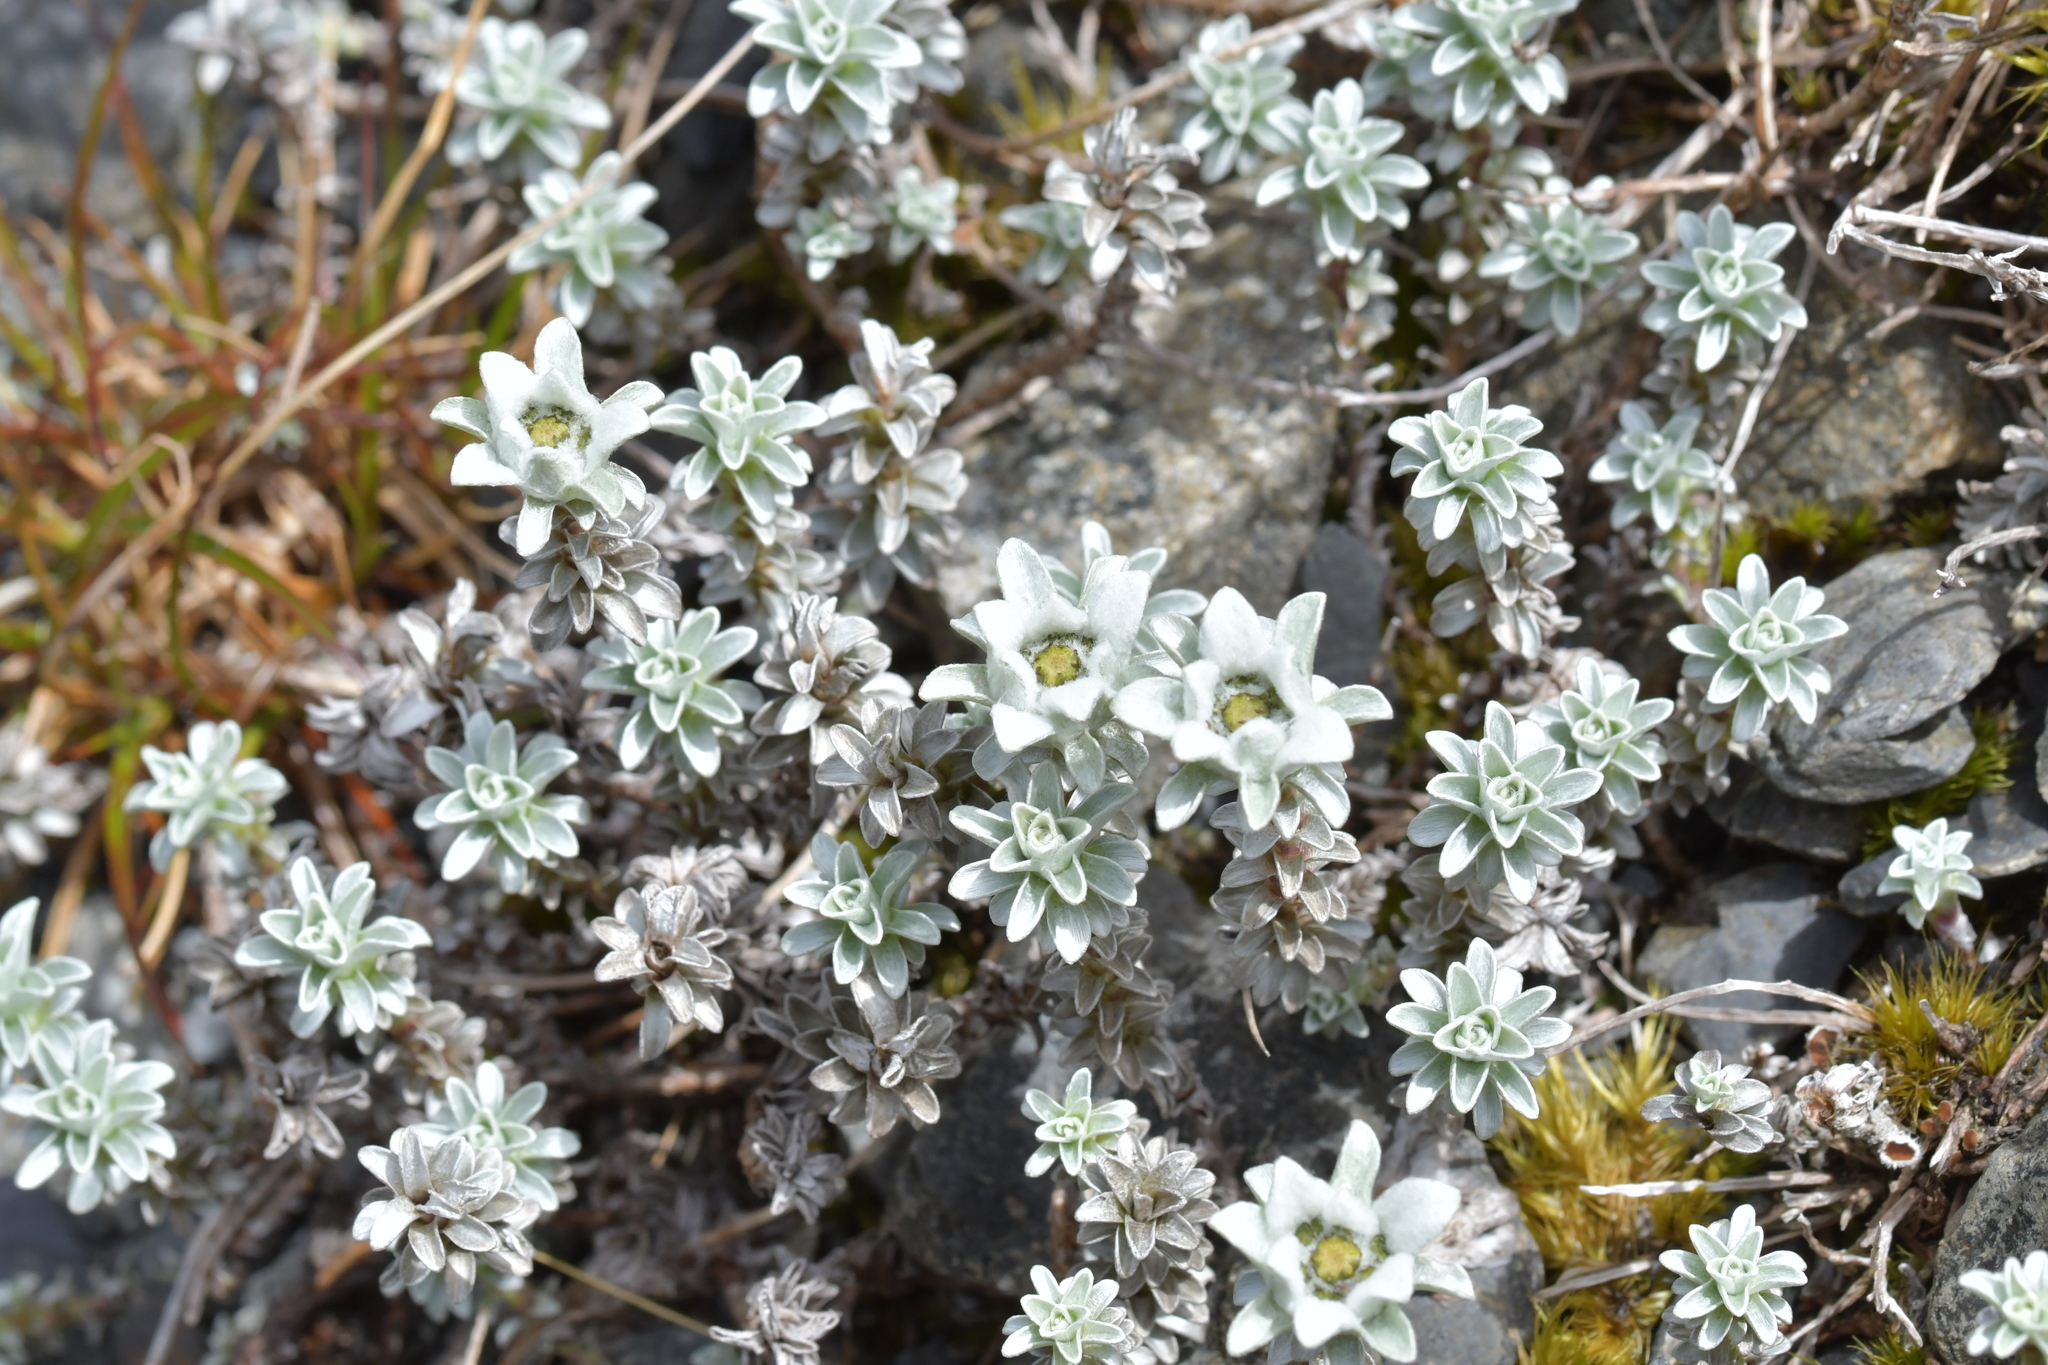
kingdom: Plantae
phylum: Tracheophyta
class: Magnoliopsida
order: Asterales
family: Asteraceae
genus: Leucogenes
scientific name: Leucogenes grandiceps
